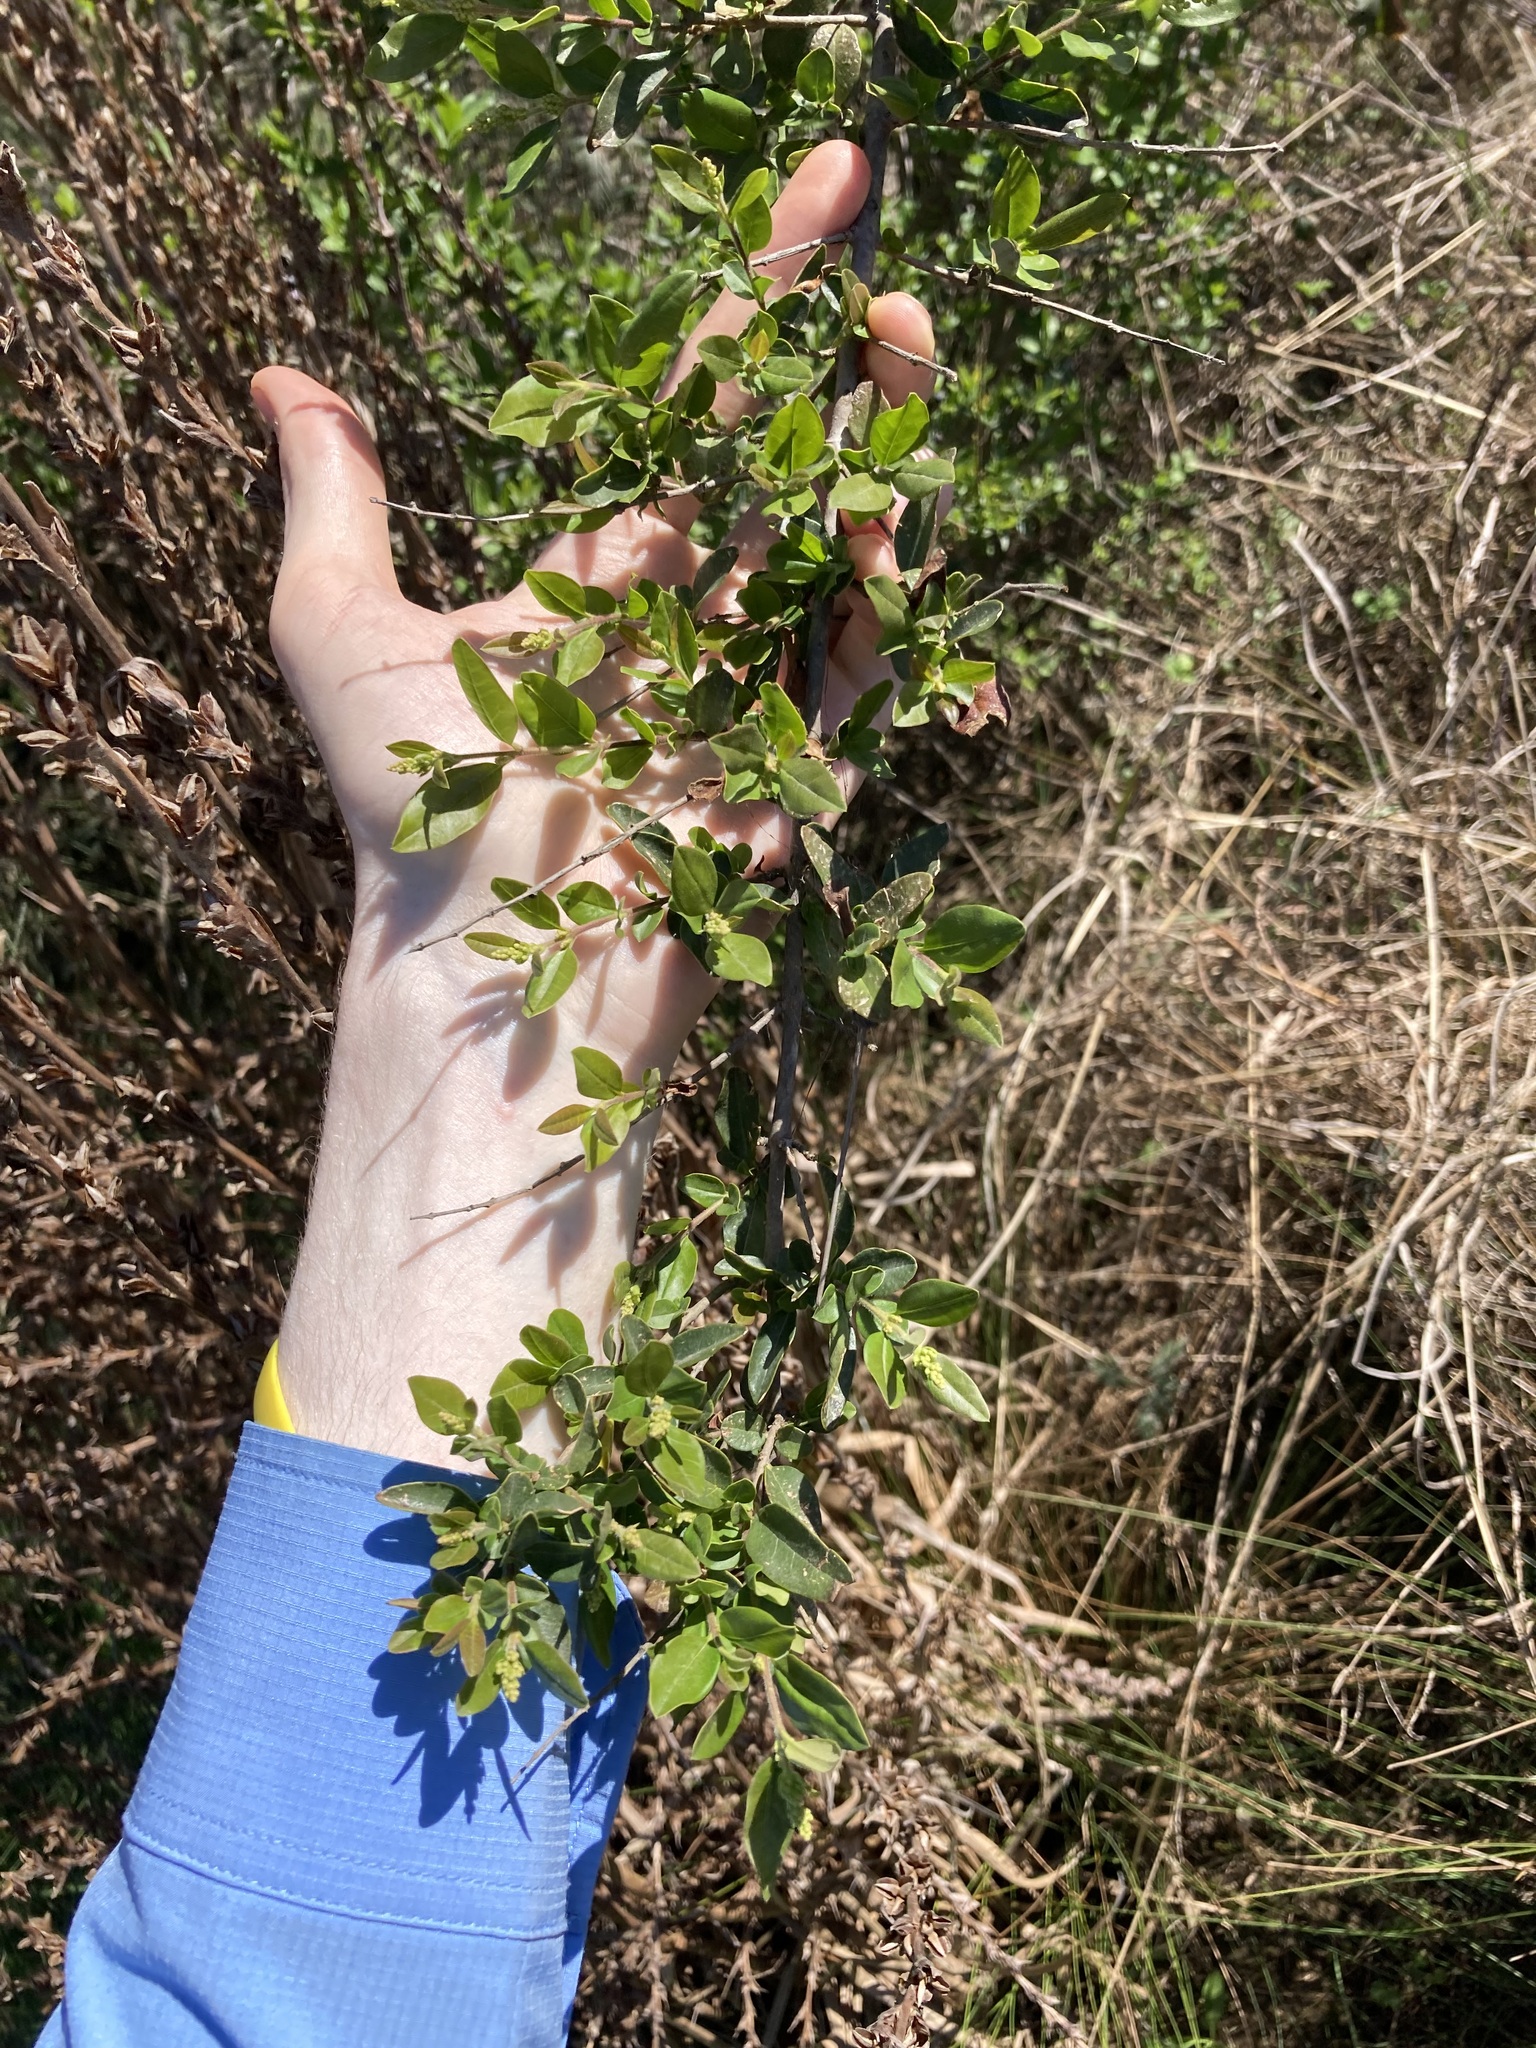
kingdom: Plantae
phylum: Tracheophyta
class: Magnoliopsida
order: Lamiales
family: Oleaceae
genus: Ligustrum
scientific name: Ligustrum sinense
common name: Chinese privet
